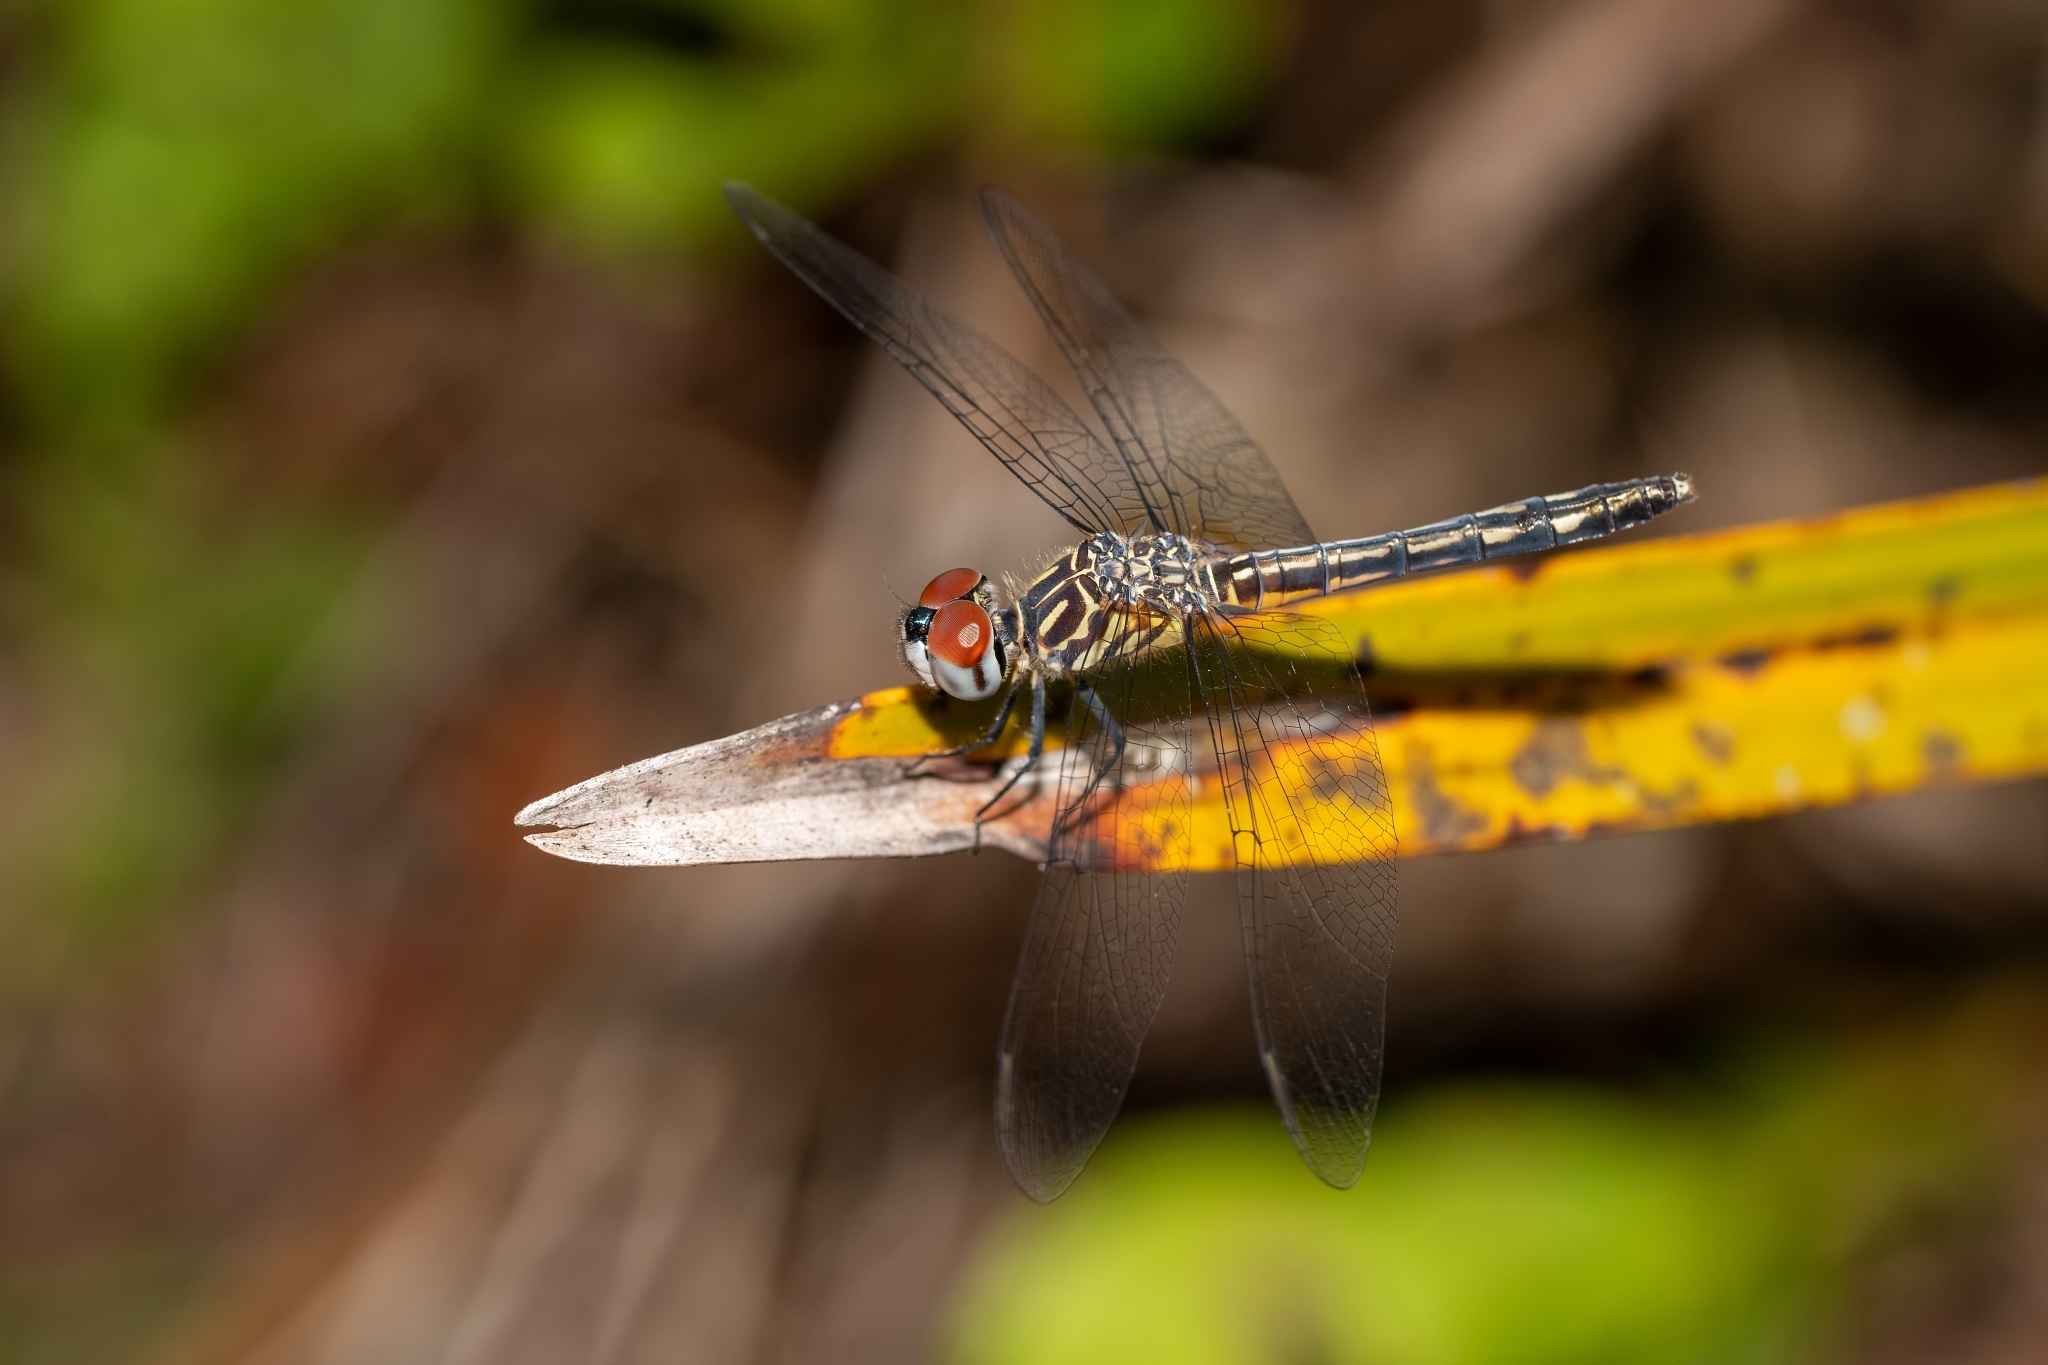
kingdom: Animalia
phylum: Arthropoda
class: Insecta
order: Odonata
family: Libellulidae
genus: Pachydiplax
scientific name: Pachydiplax longipennis
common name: Blue dasher
